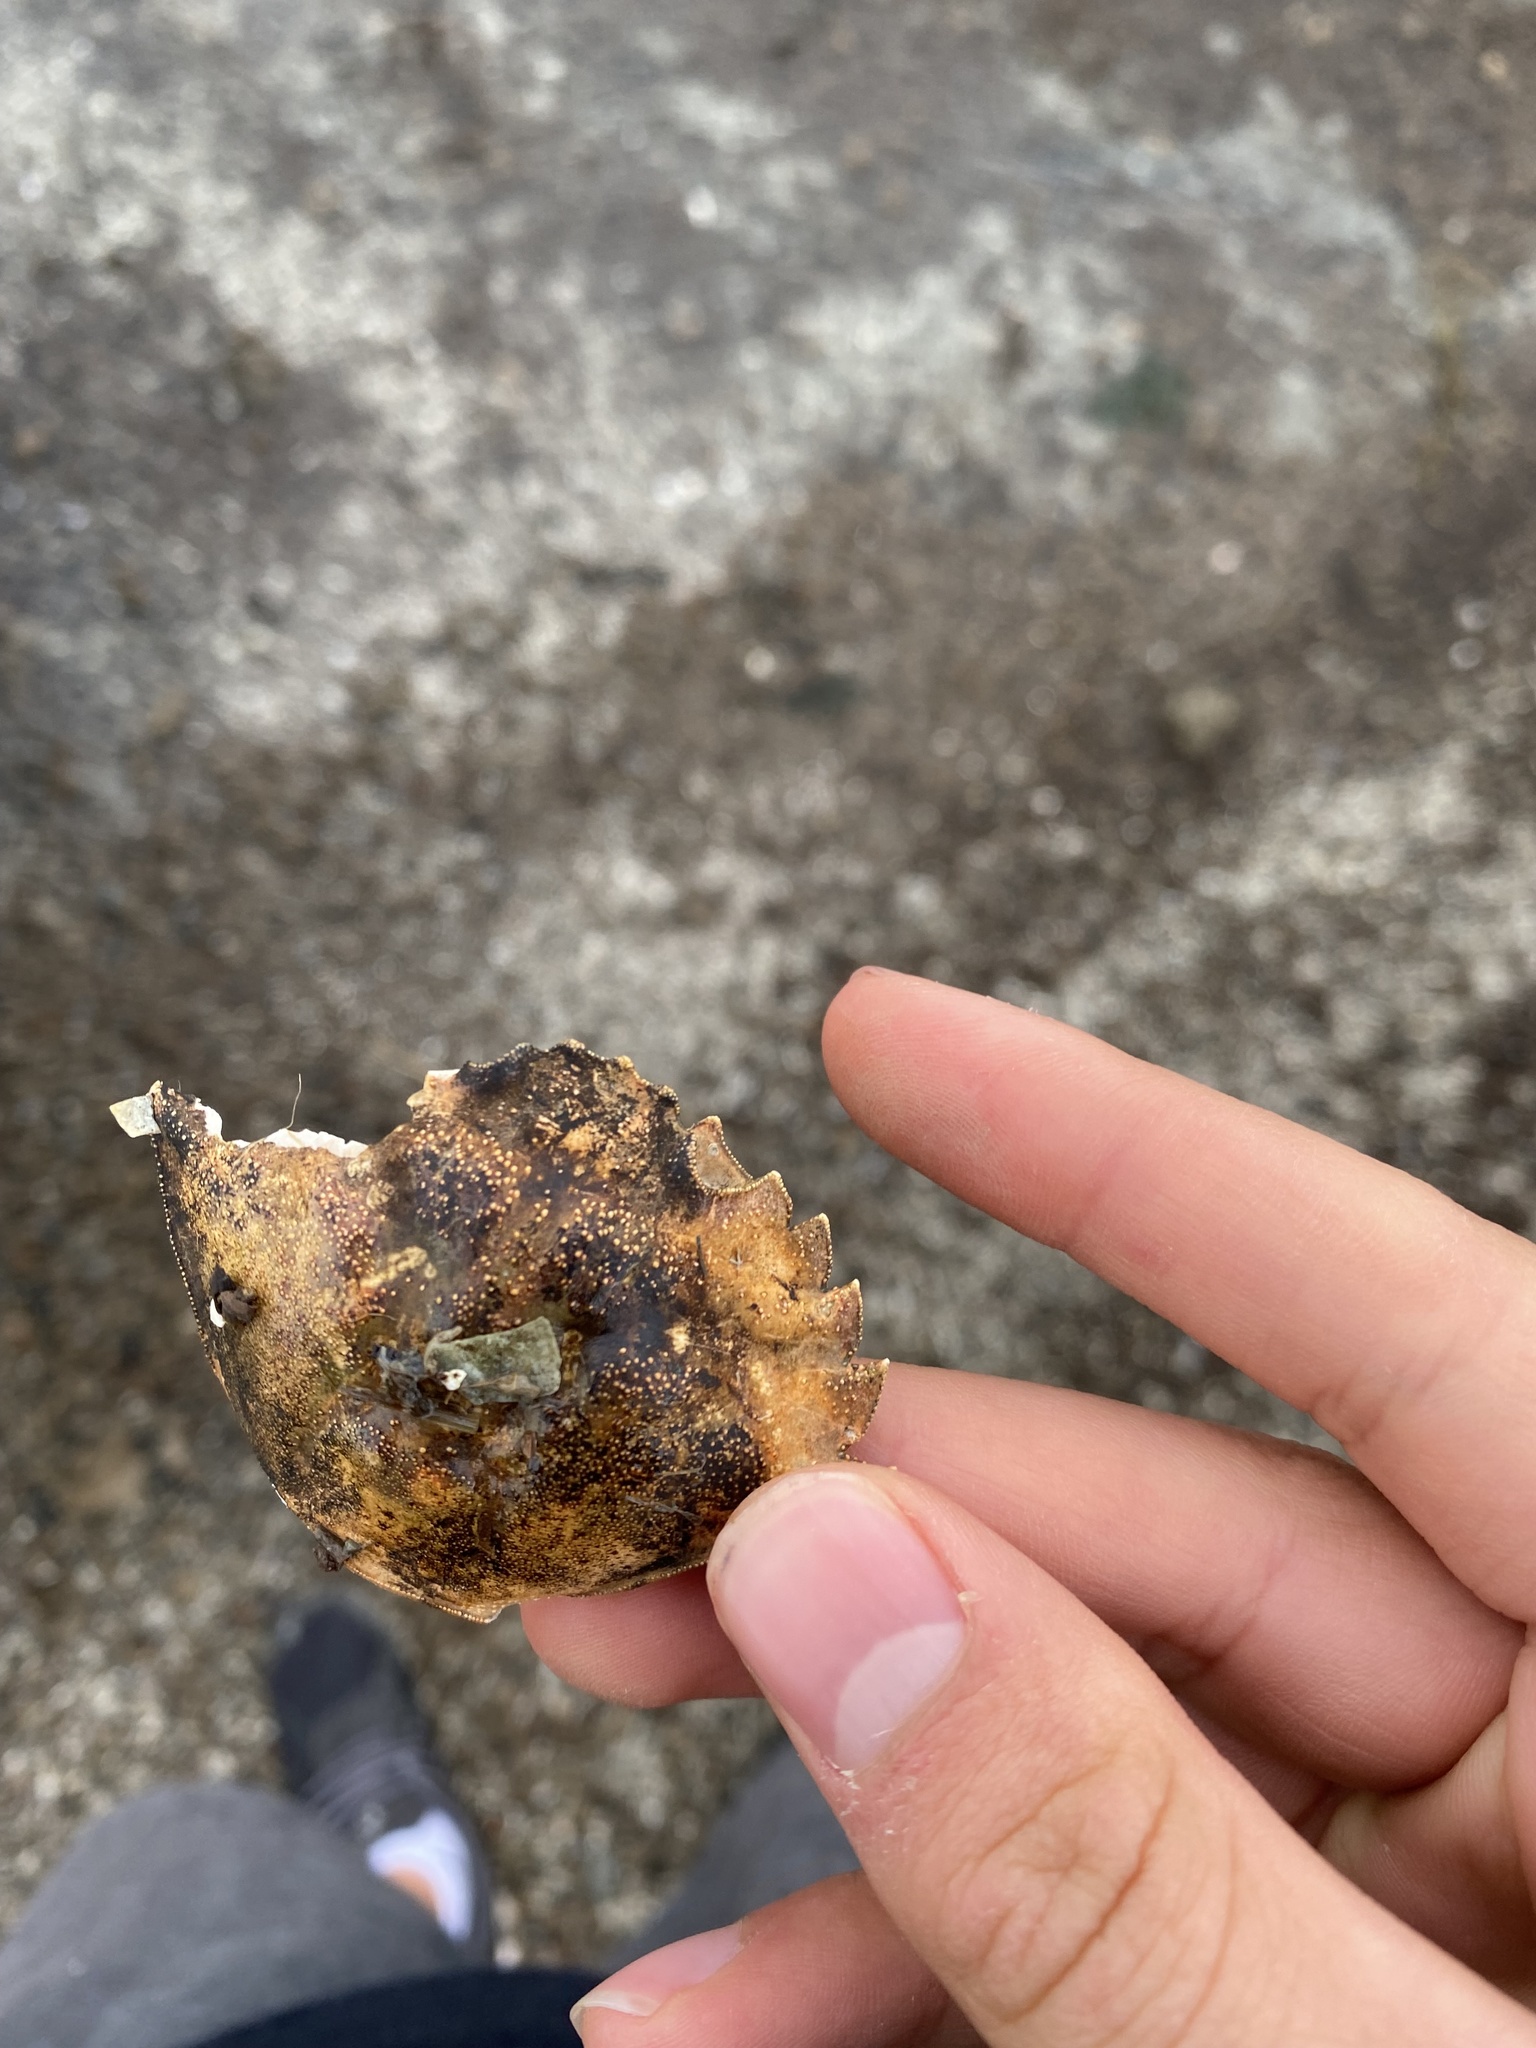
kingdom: Animalia
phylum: Arthropoda
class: Malacostraca
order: Decapoda
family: Carcinidae
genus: Carcinus
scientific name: Carcinus maenas
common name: European green crab
